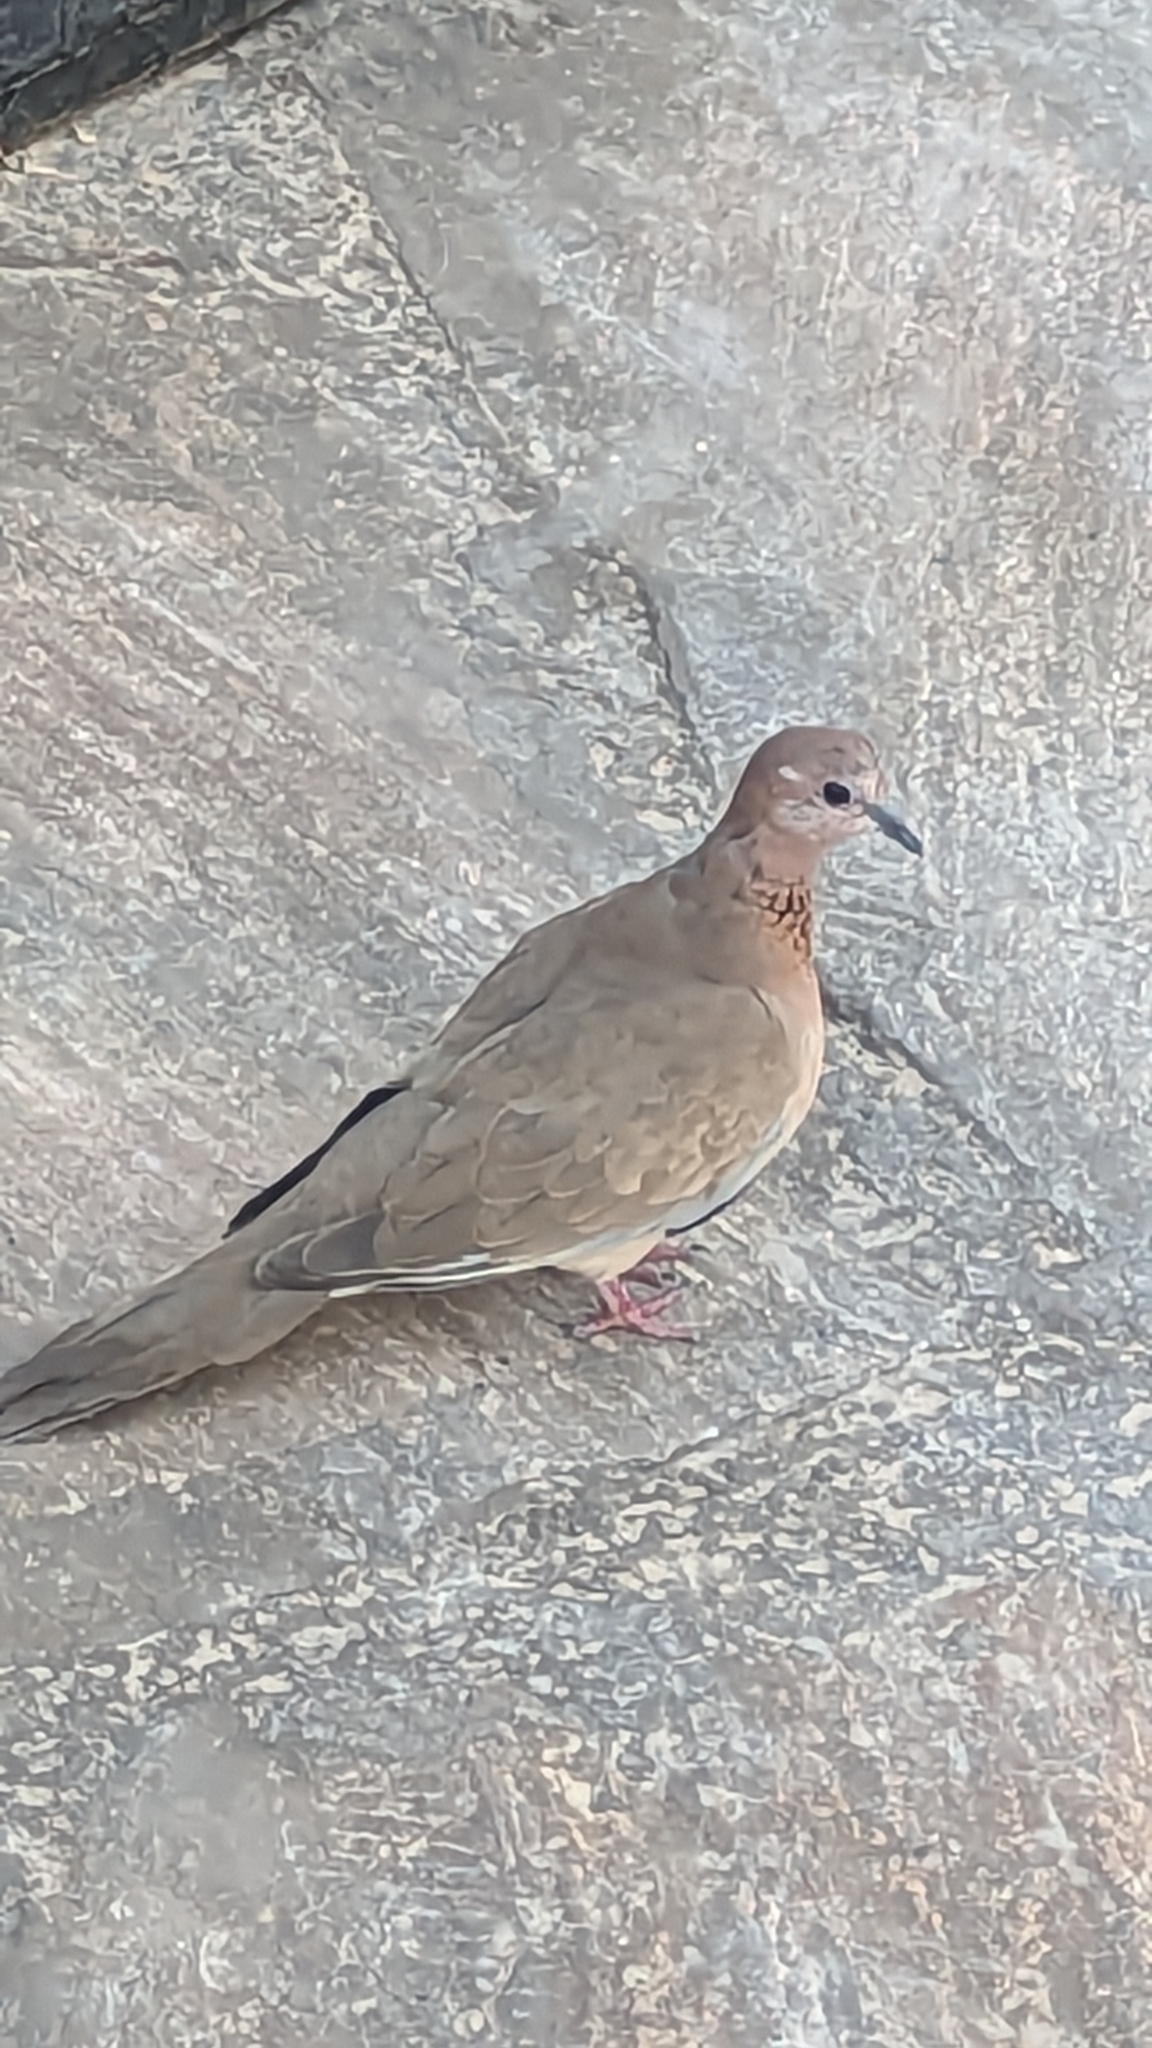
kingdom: Animalia
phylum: Chordata
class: Aves
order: Columbiformes
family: Columbidae
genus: Spilopelia
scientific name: Spilopelia senegalensis
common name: Laughing dove
